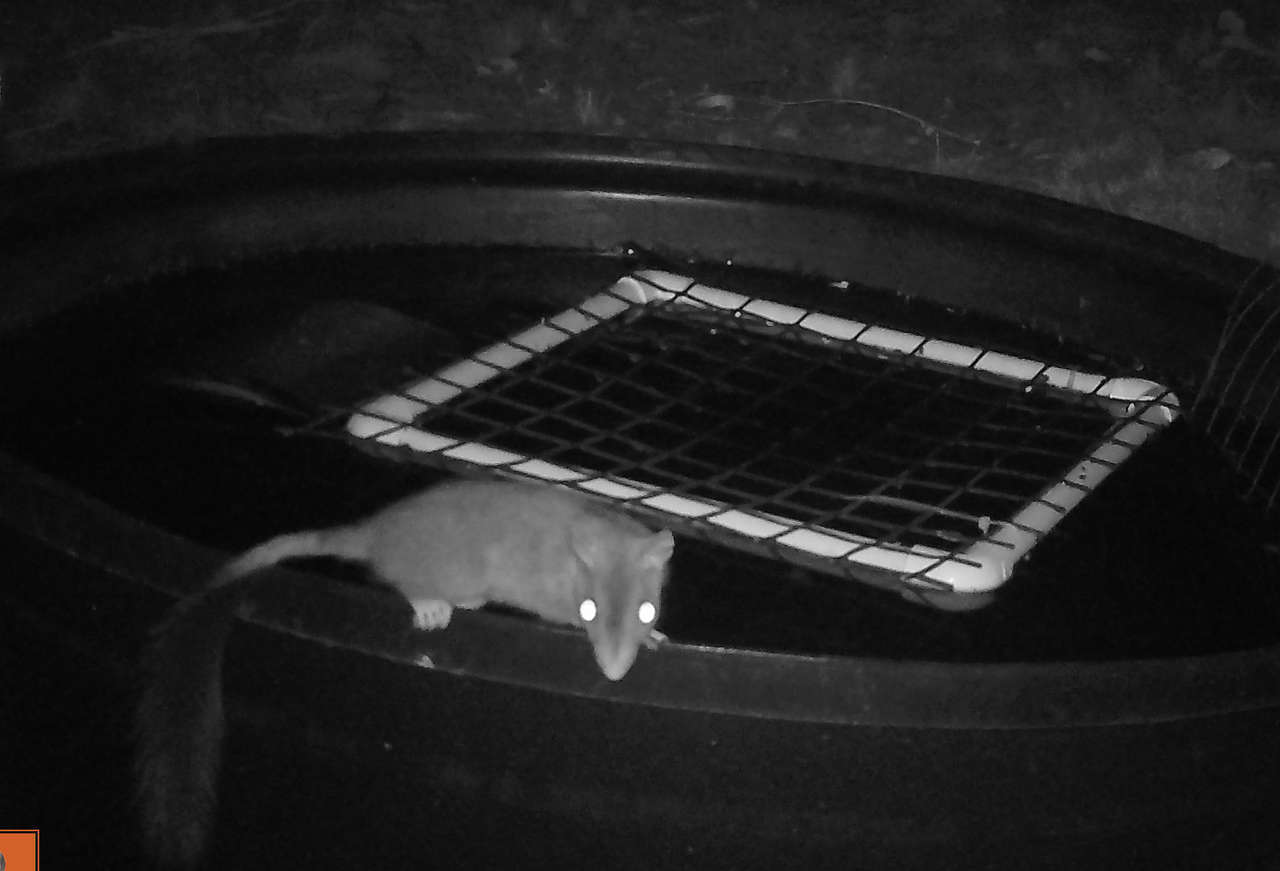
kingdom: Animalia
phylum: Chordata
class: Mammalia
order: Dasyuromorphia
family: Dasyuridae
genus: Phascogale
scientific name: Phascogale tapoatafa
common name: Brush-tailed phascogale
